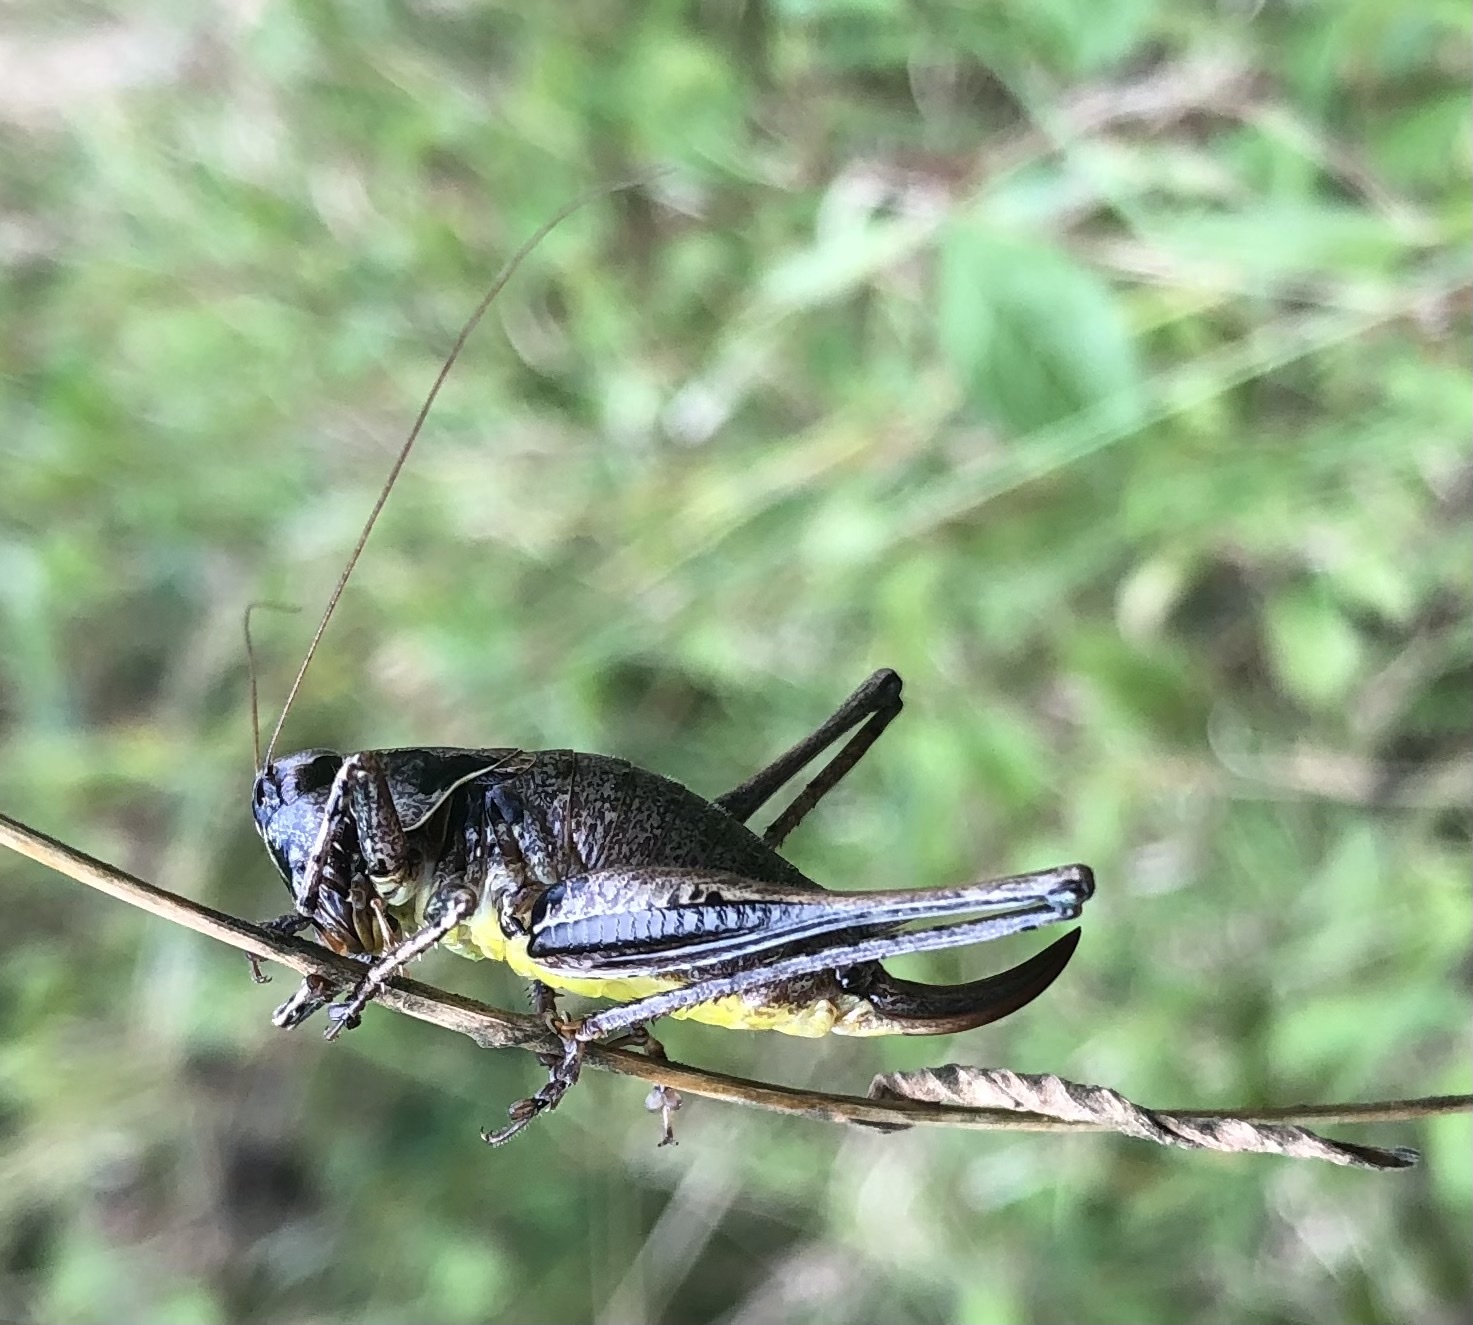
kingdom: Animalia
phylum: Arthropoda
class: Insecta
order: Orthoptera
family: Tettigoniidae
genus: Pholidoptera
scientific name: Pholidoptera griseoaptera
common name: Dark bush-cricket
